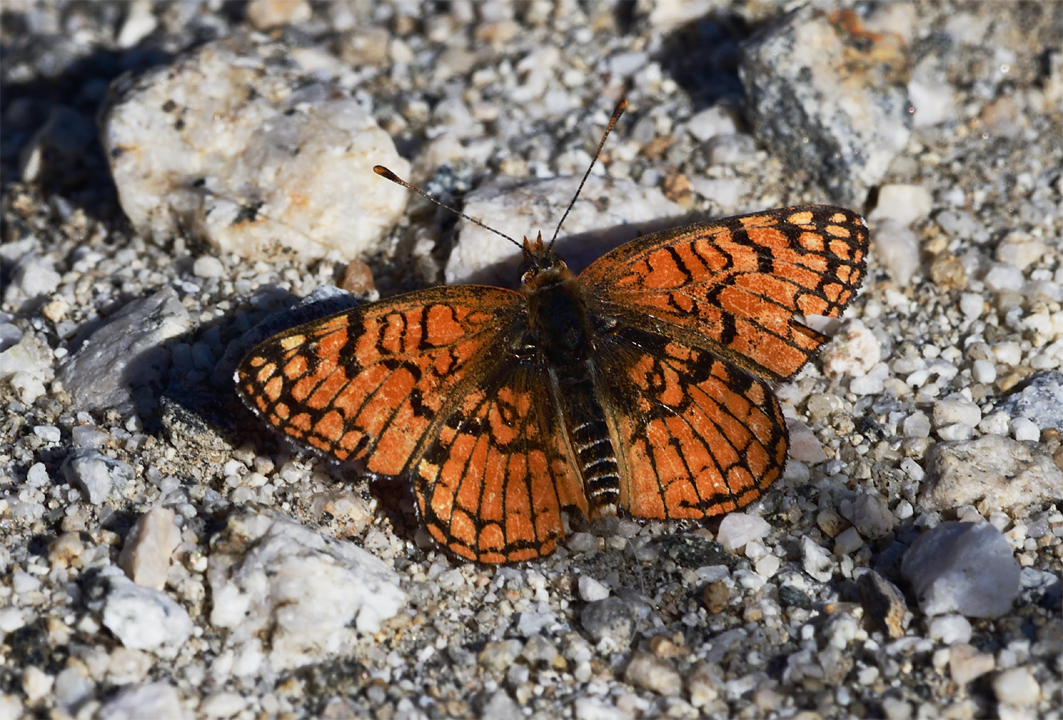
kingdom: Animalia
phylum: Arthropoda
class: Insecta
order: Lepidoptera
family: Nymphalidae
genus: Chlosyne
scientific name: Chlosyne acastus
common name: Sagebrush checkerspot
